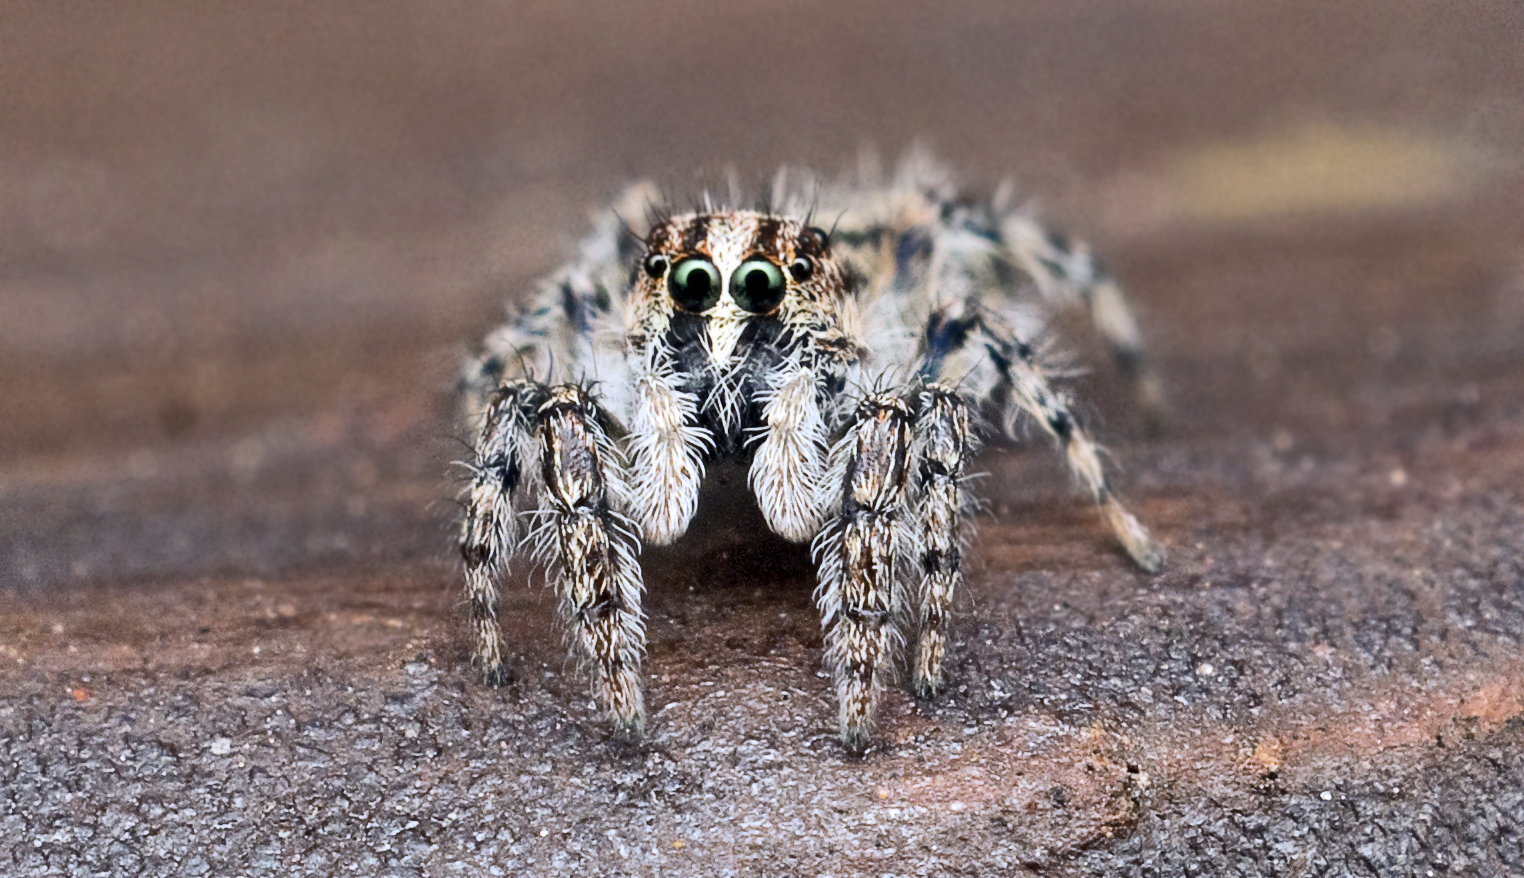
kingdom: Animalia
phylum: Arthropoda
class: Arachnida
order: Araneae
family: Salticidae
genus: Abracadabrella
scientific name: Abracadabrella elegans
